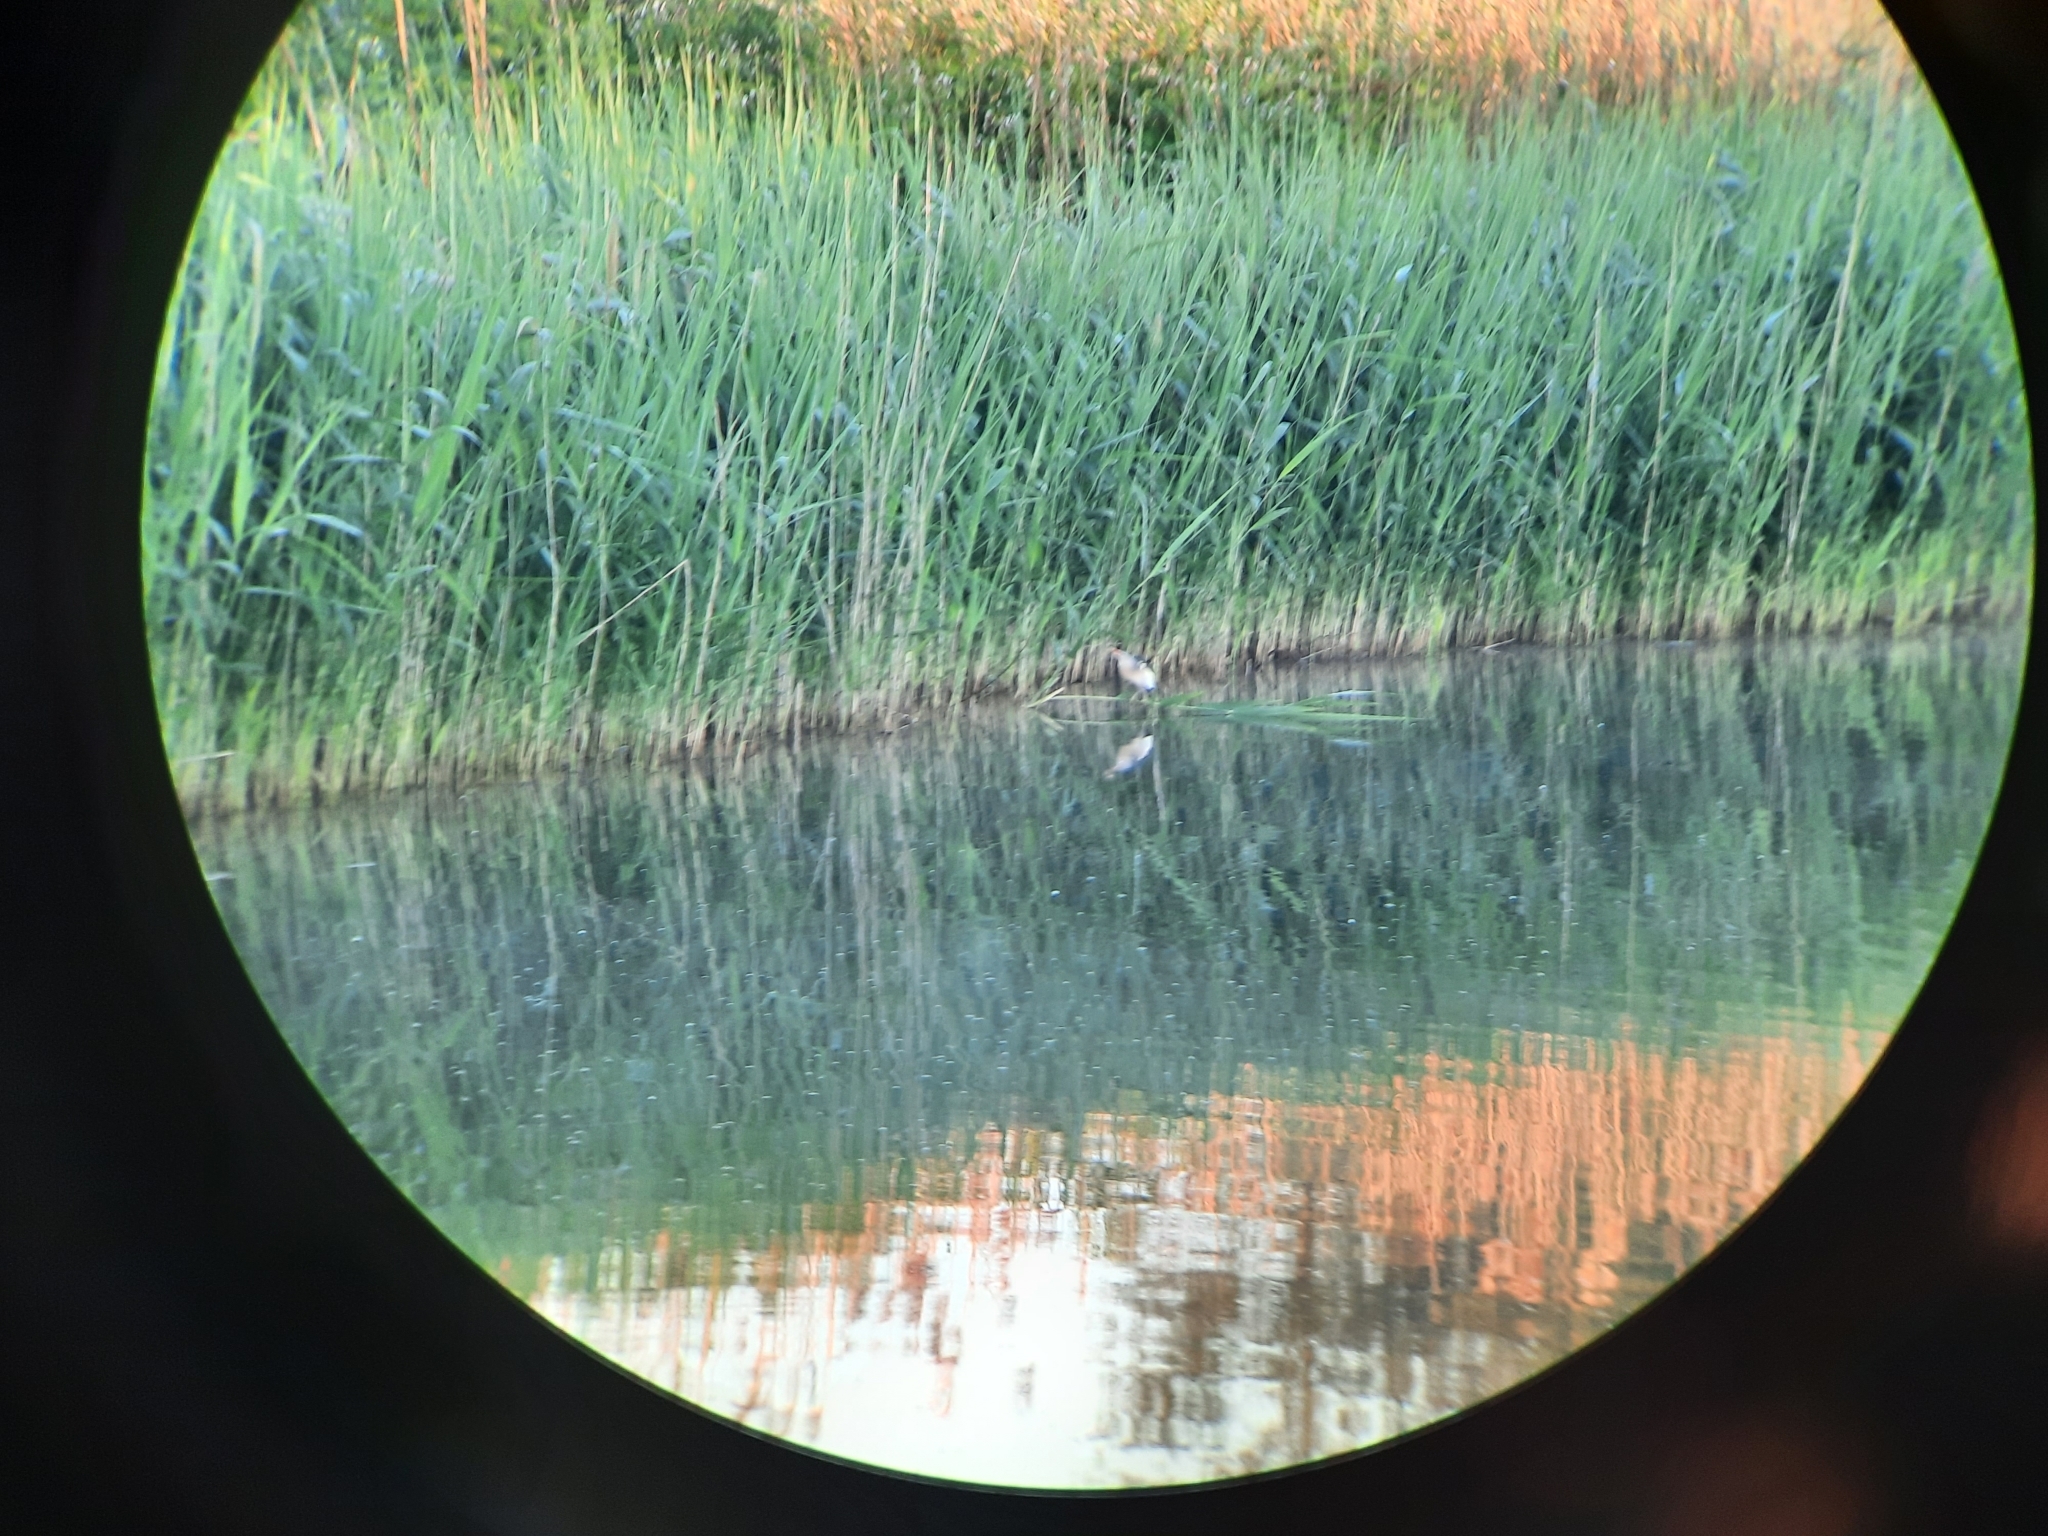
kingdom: Animalia
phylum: Chordata
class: Aves
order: Pelecaniformes
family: Ardeidae
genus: Ixobrychus
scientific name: Ixobrychus minutus
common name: Little bittern
